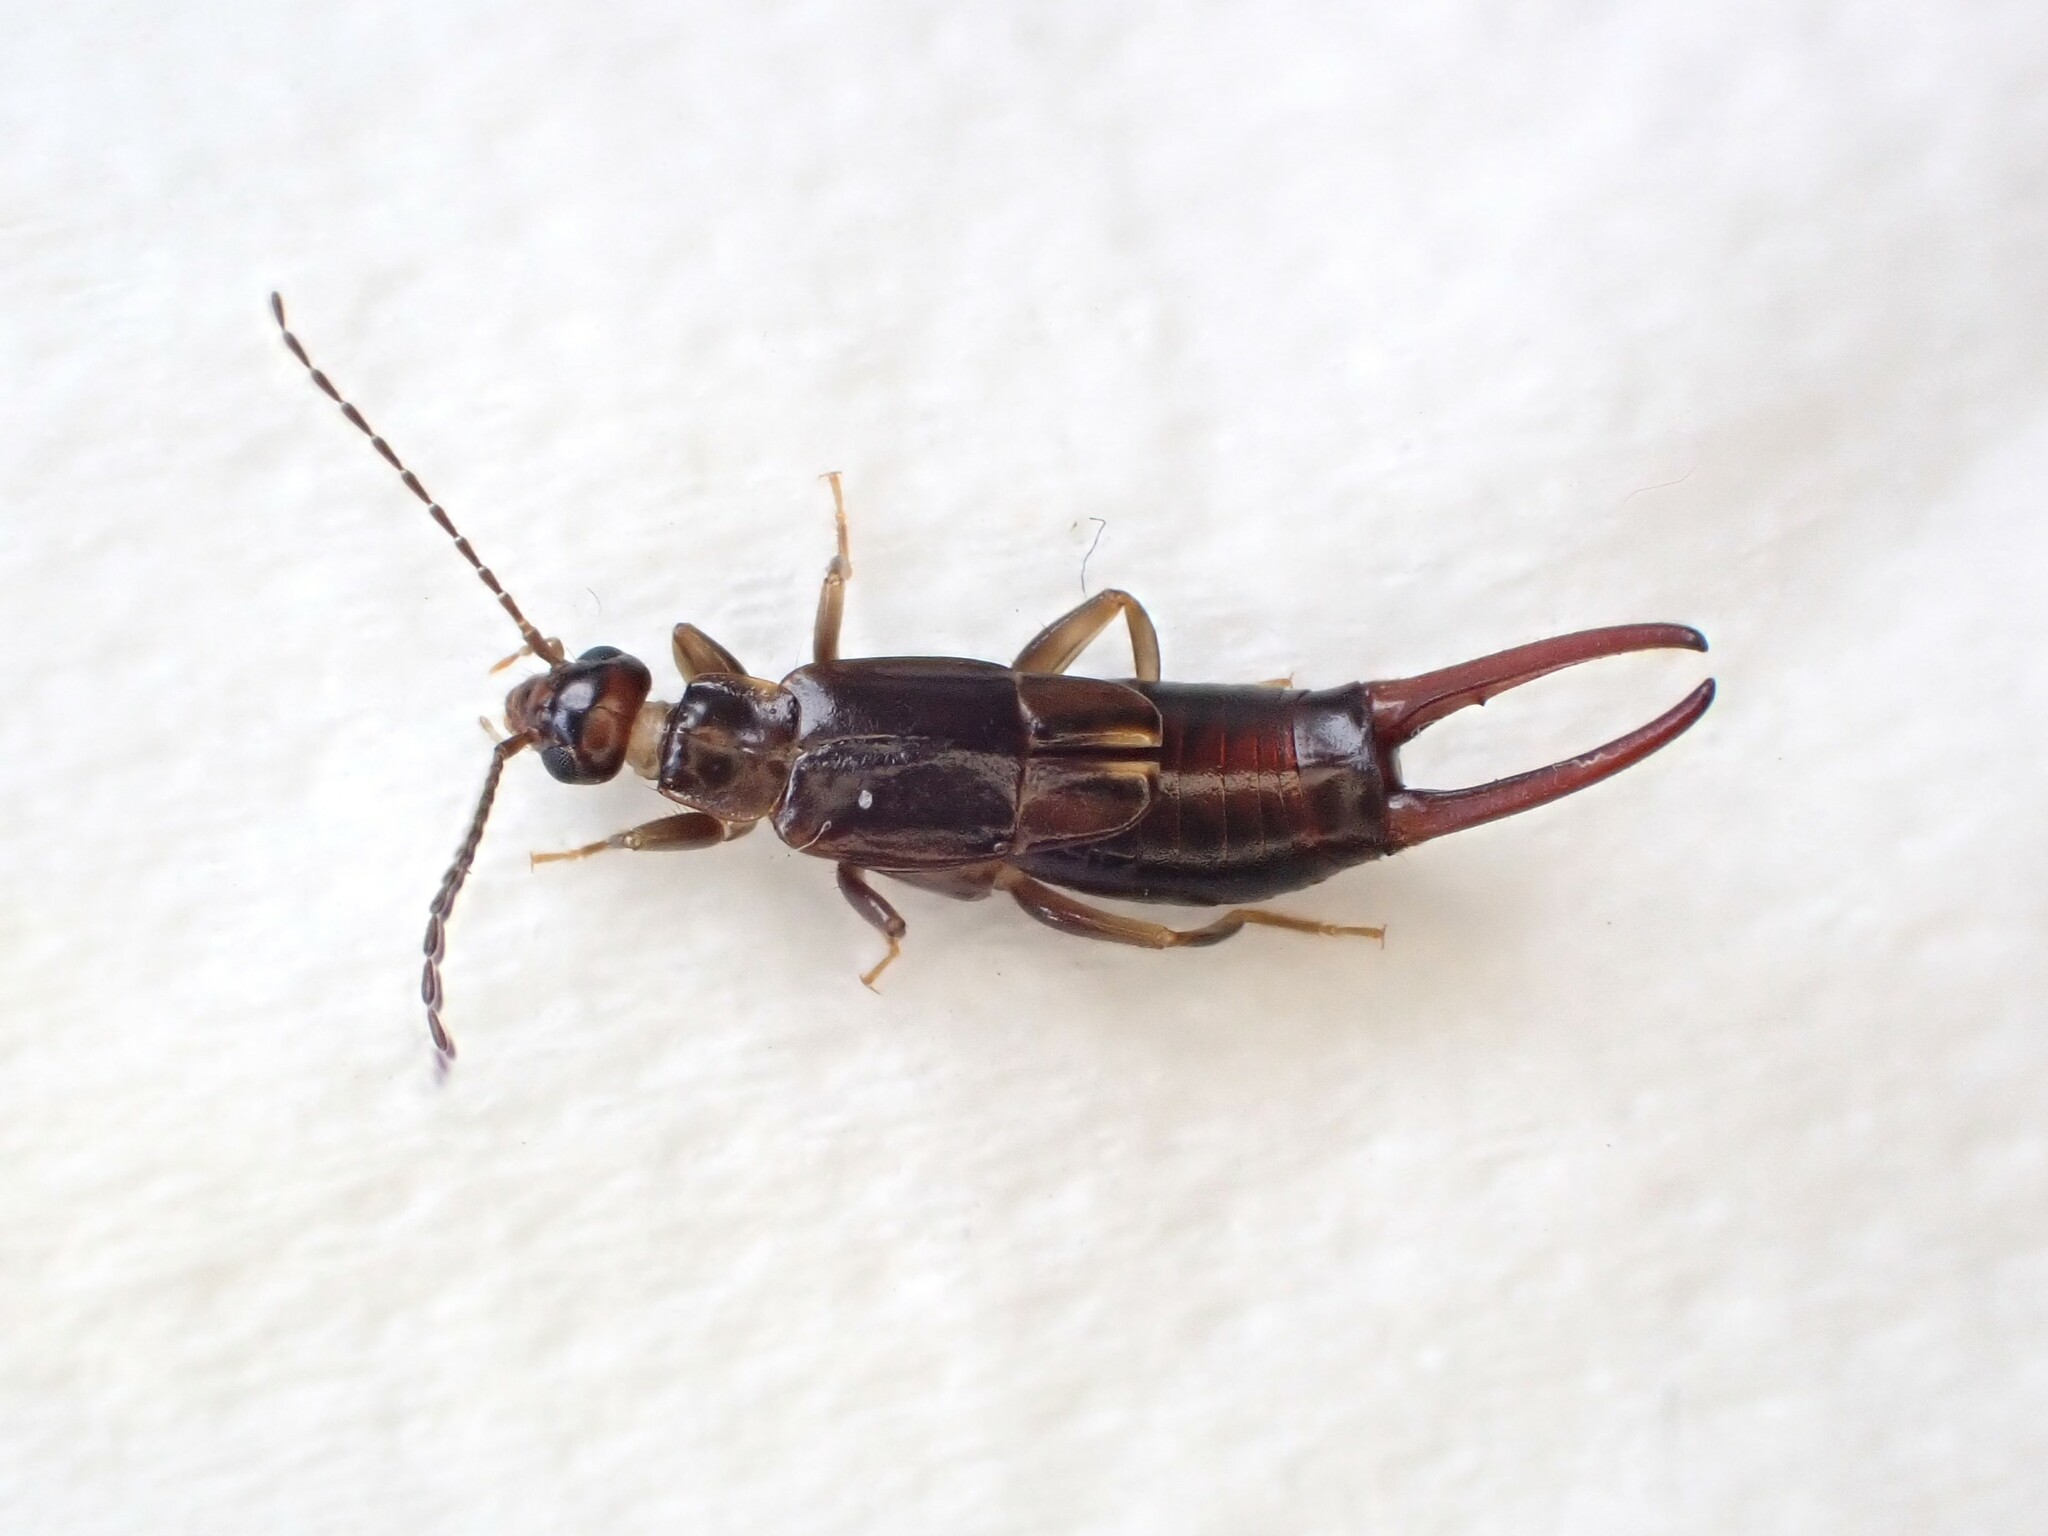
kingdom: Animalia
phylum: Arthropoda
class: Insecta
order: Dermaptera
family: Spongiphoridae
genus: Nesogaster
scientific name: Nesogaster halli
